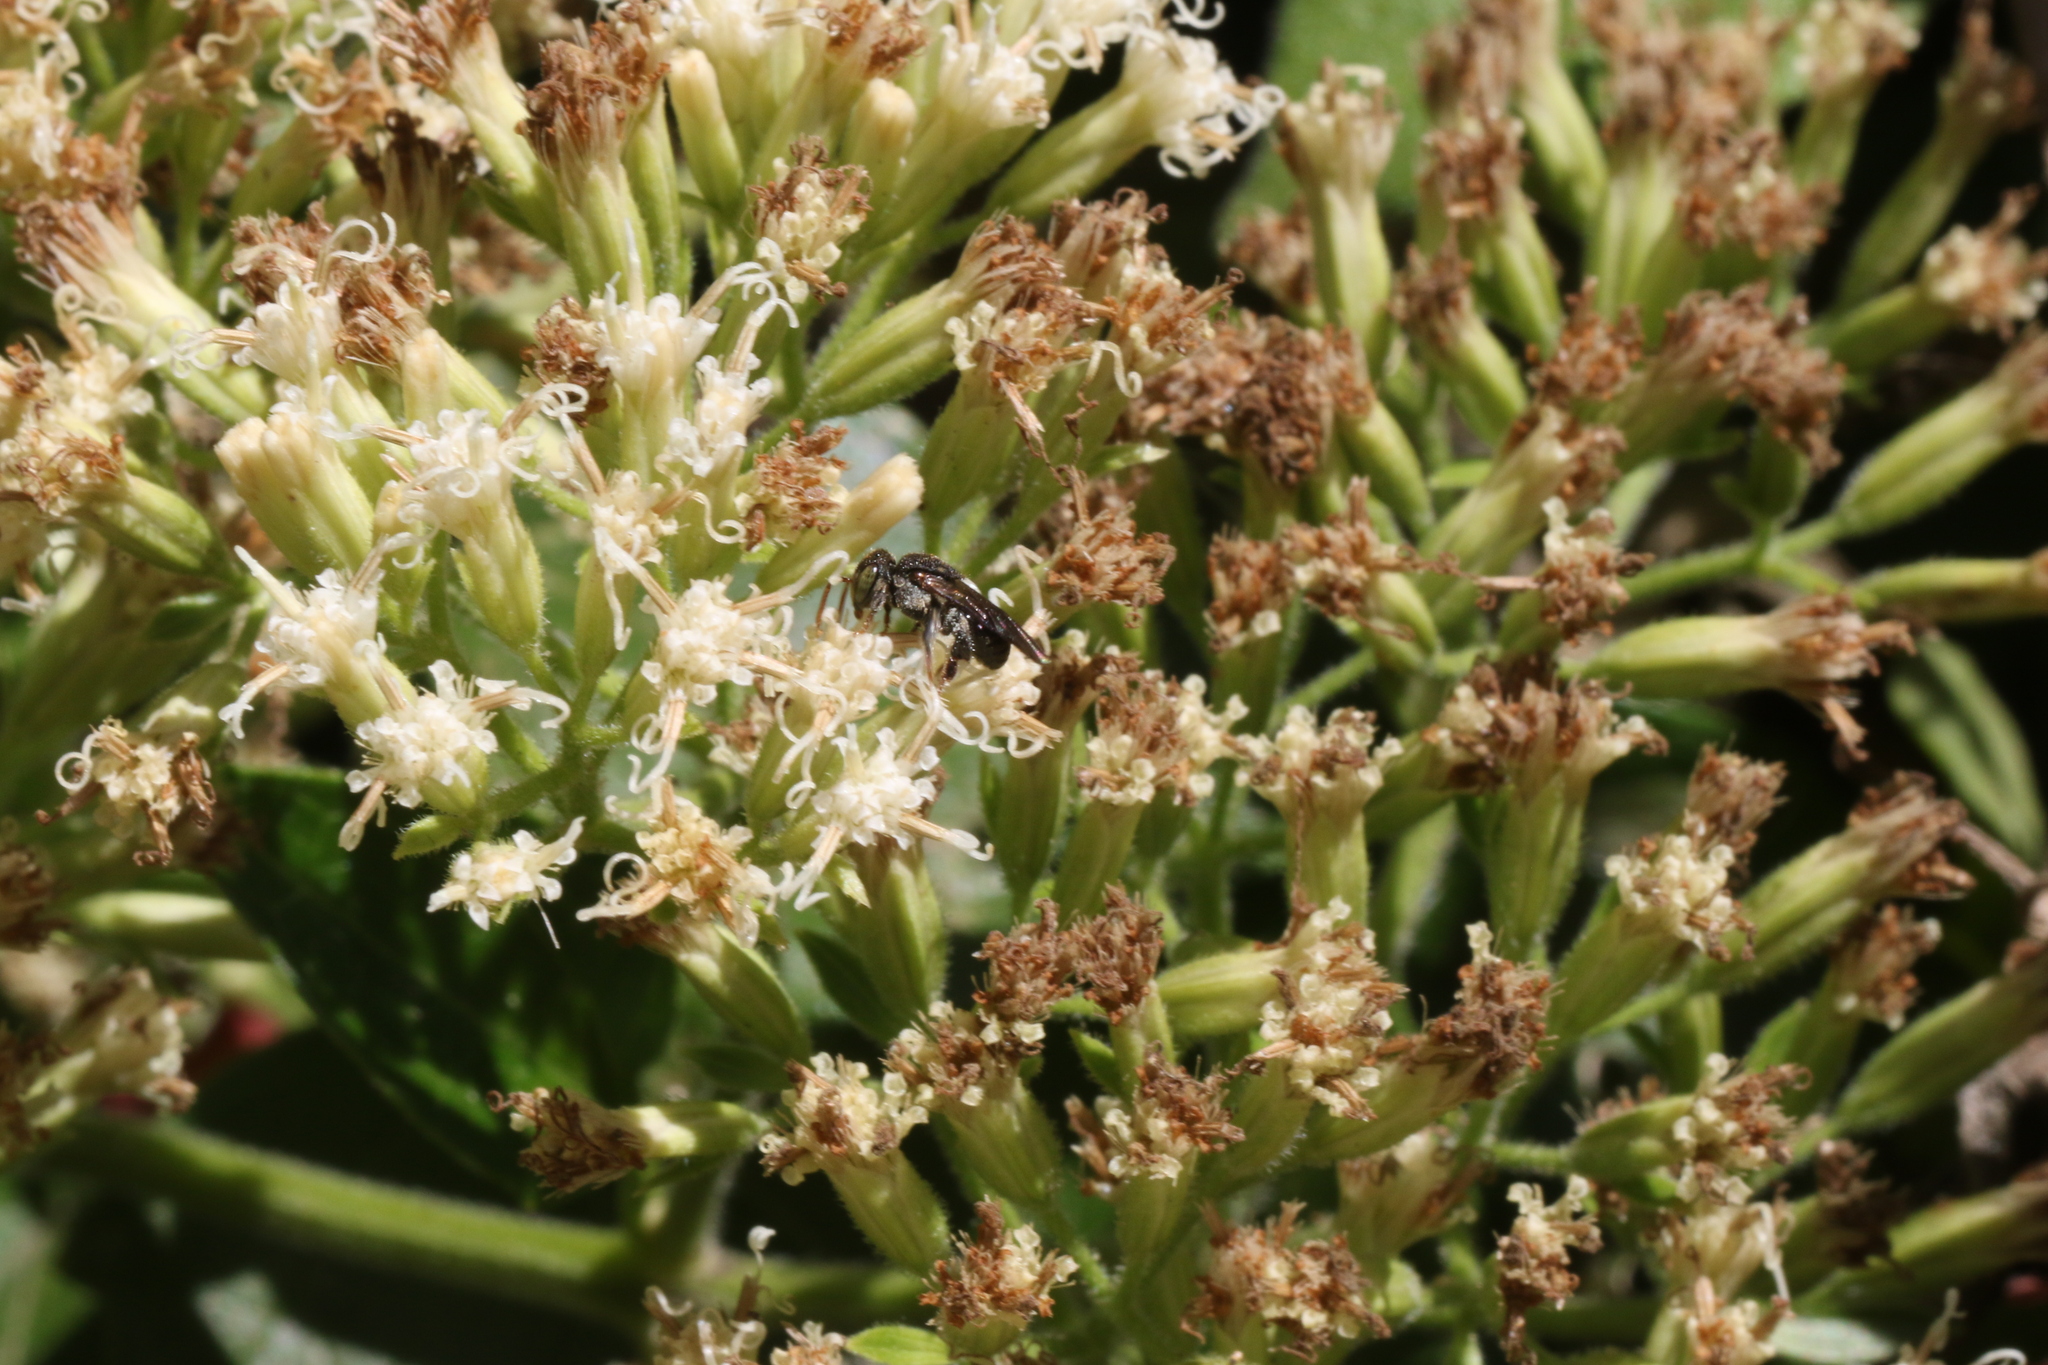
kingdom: Animalia
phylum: Arthropoda
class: Insecta
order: Hymenoptera
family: Apidae
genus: Nannotrigona
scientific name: Nannotrigona testaceicornis
